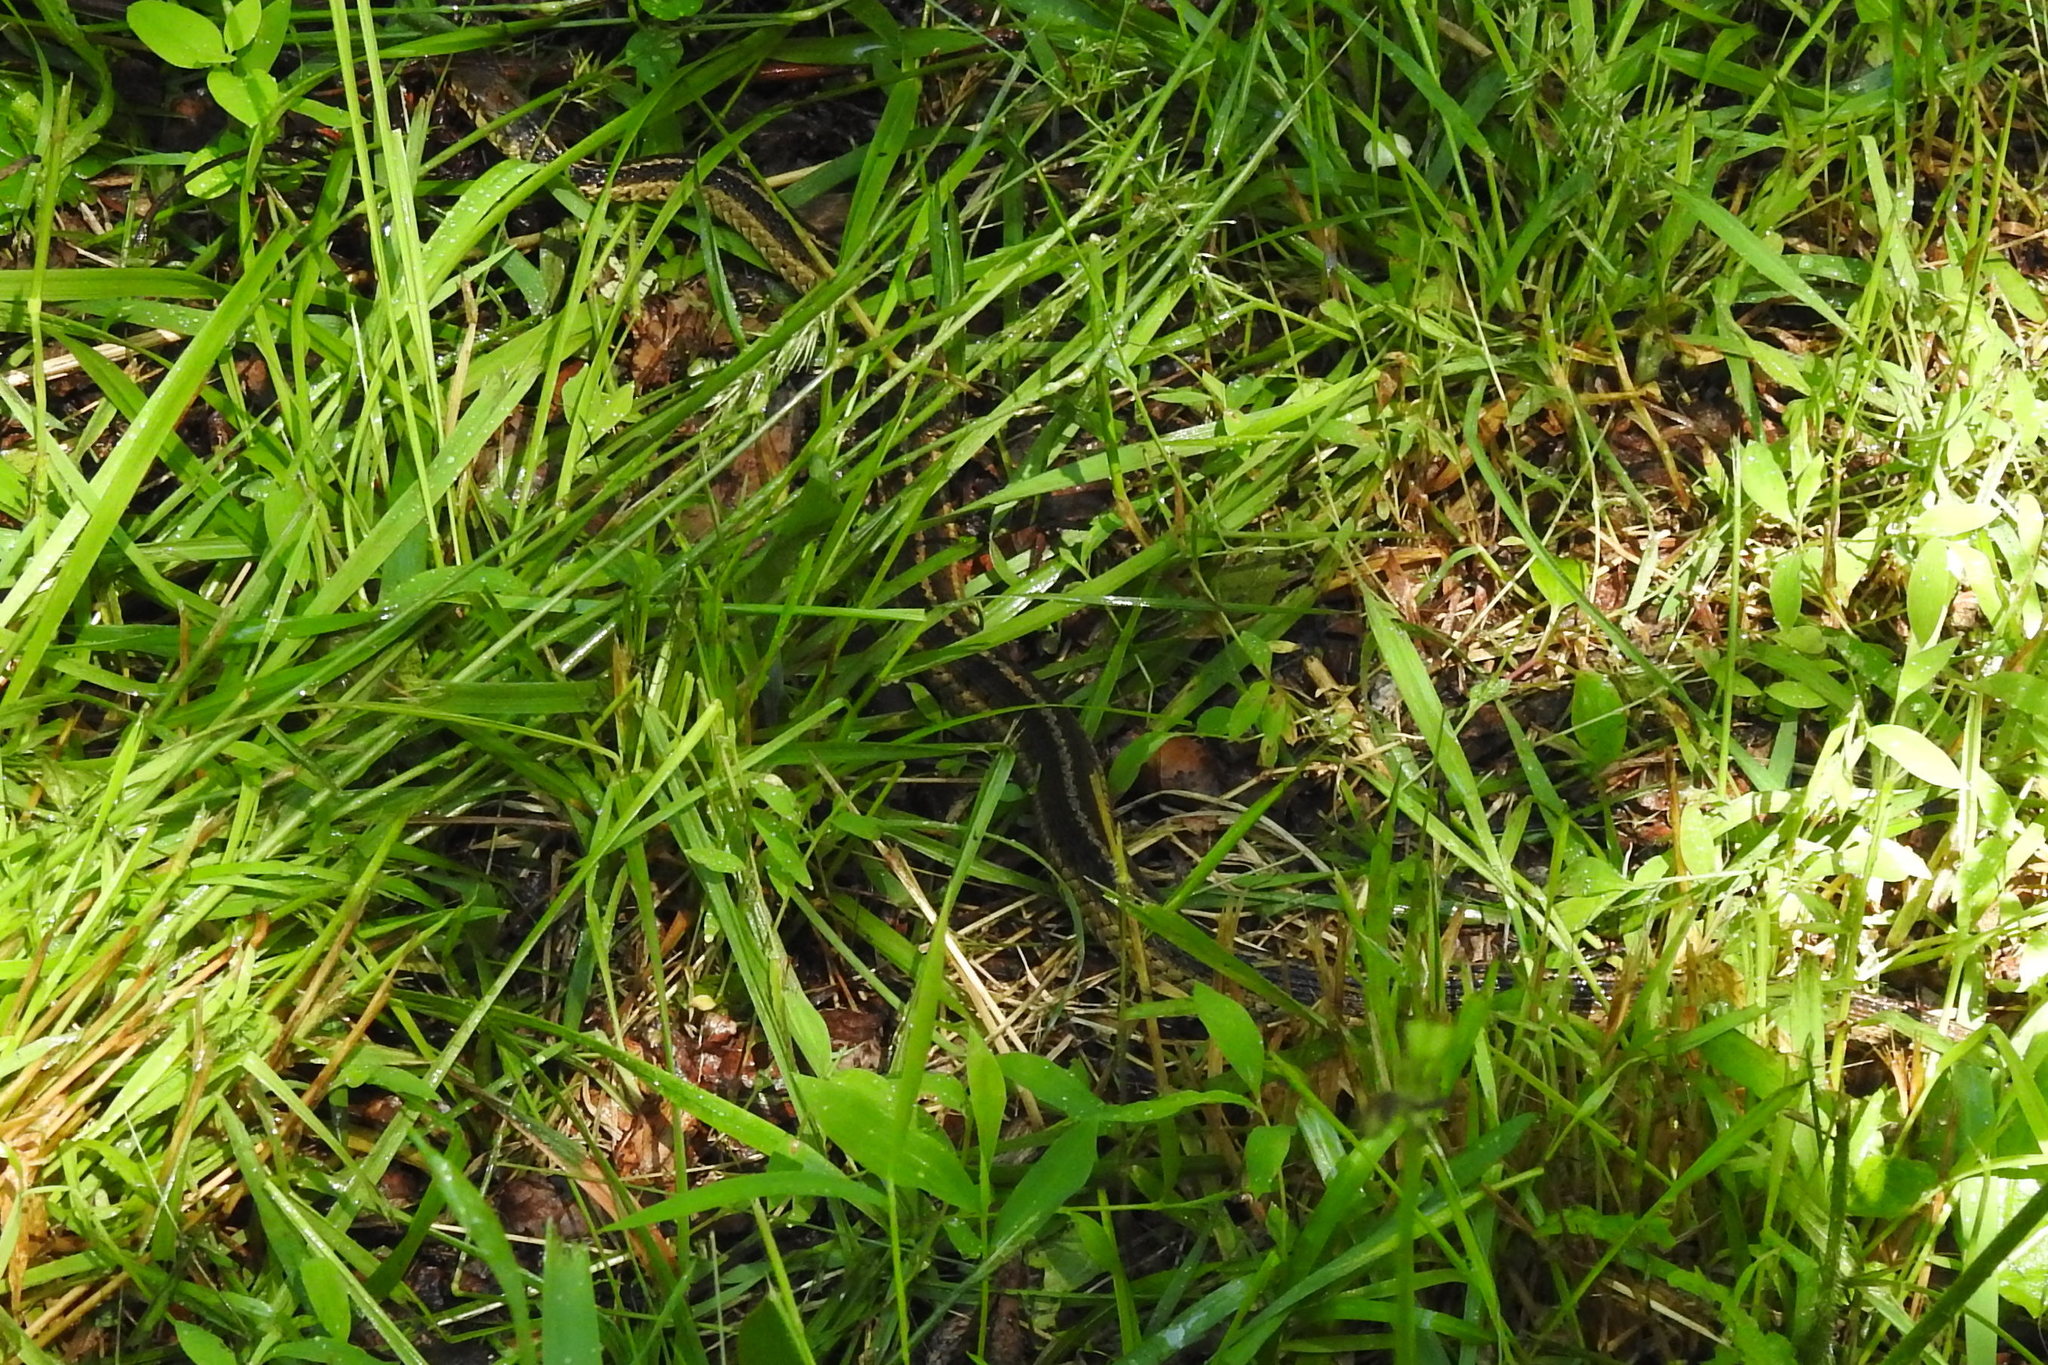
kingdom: Animalia
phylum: Chordata
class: Squamata
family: Colubridae
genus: Thamnophis
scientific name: Thamnophis sirtalis
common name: Common garter snake
